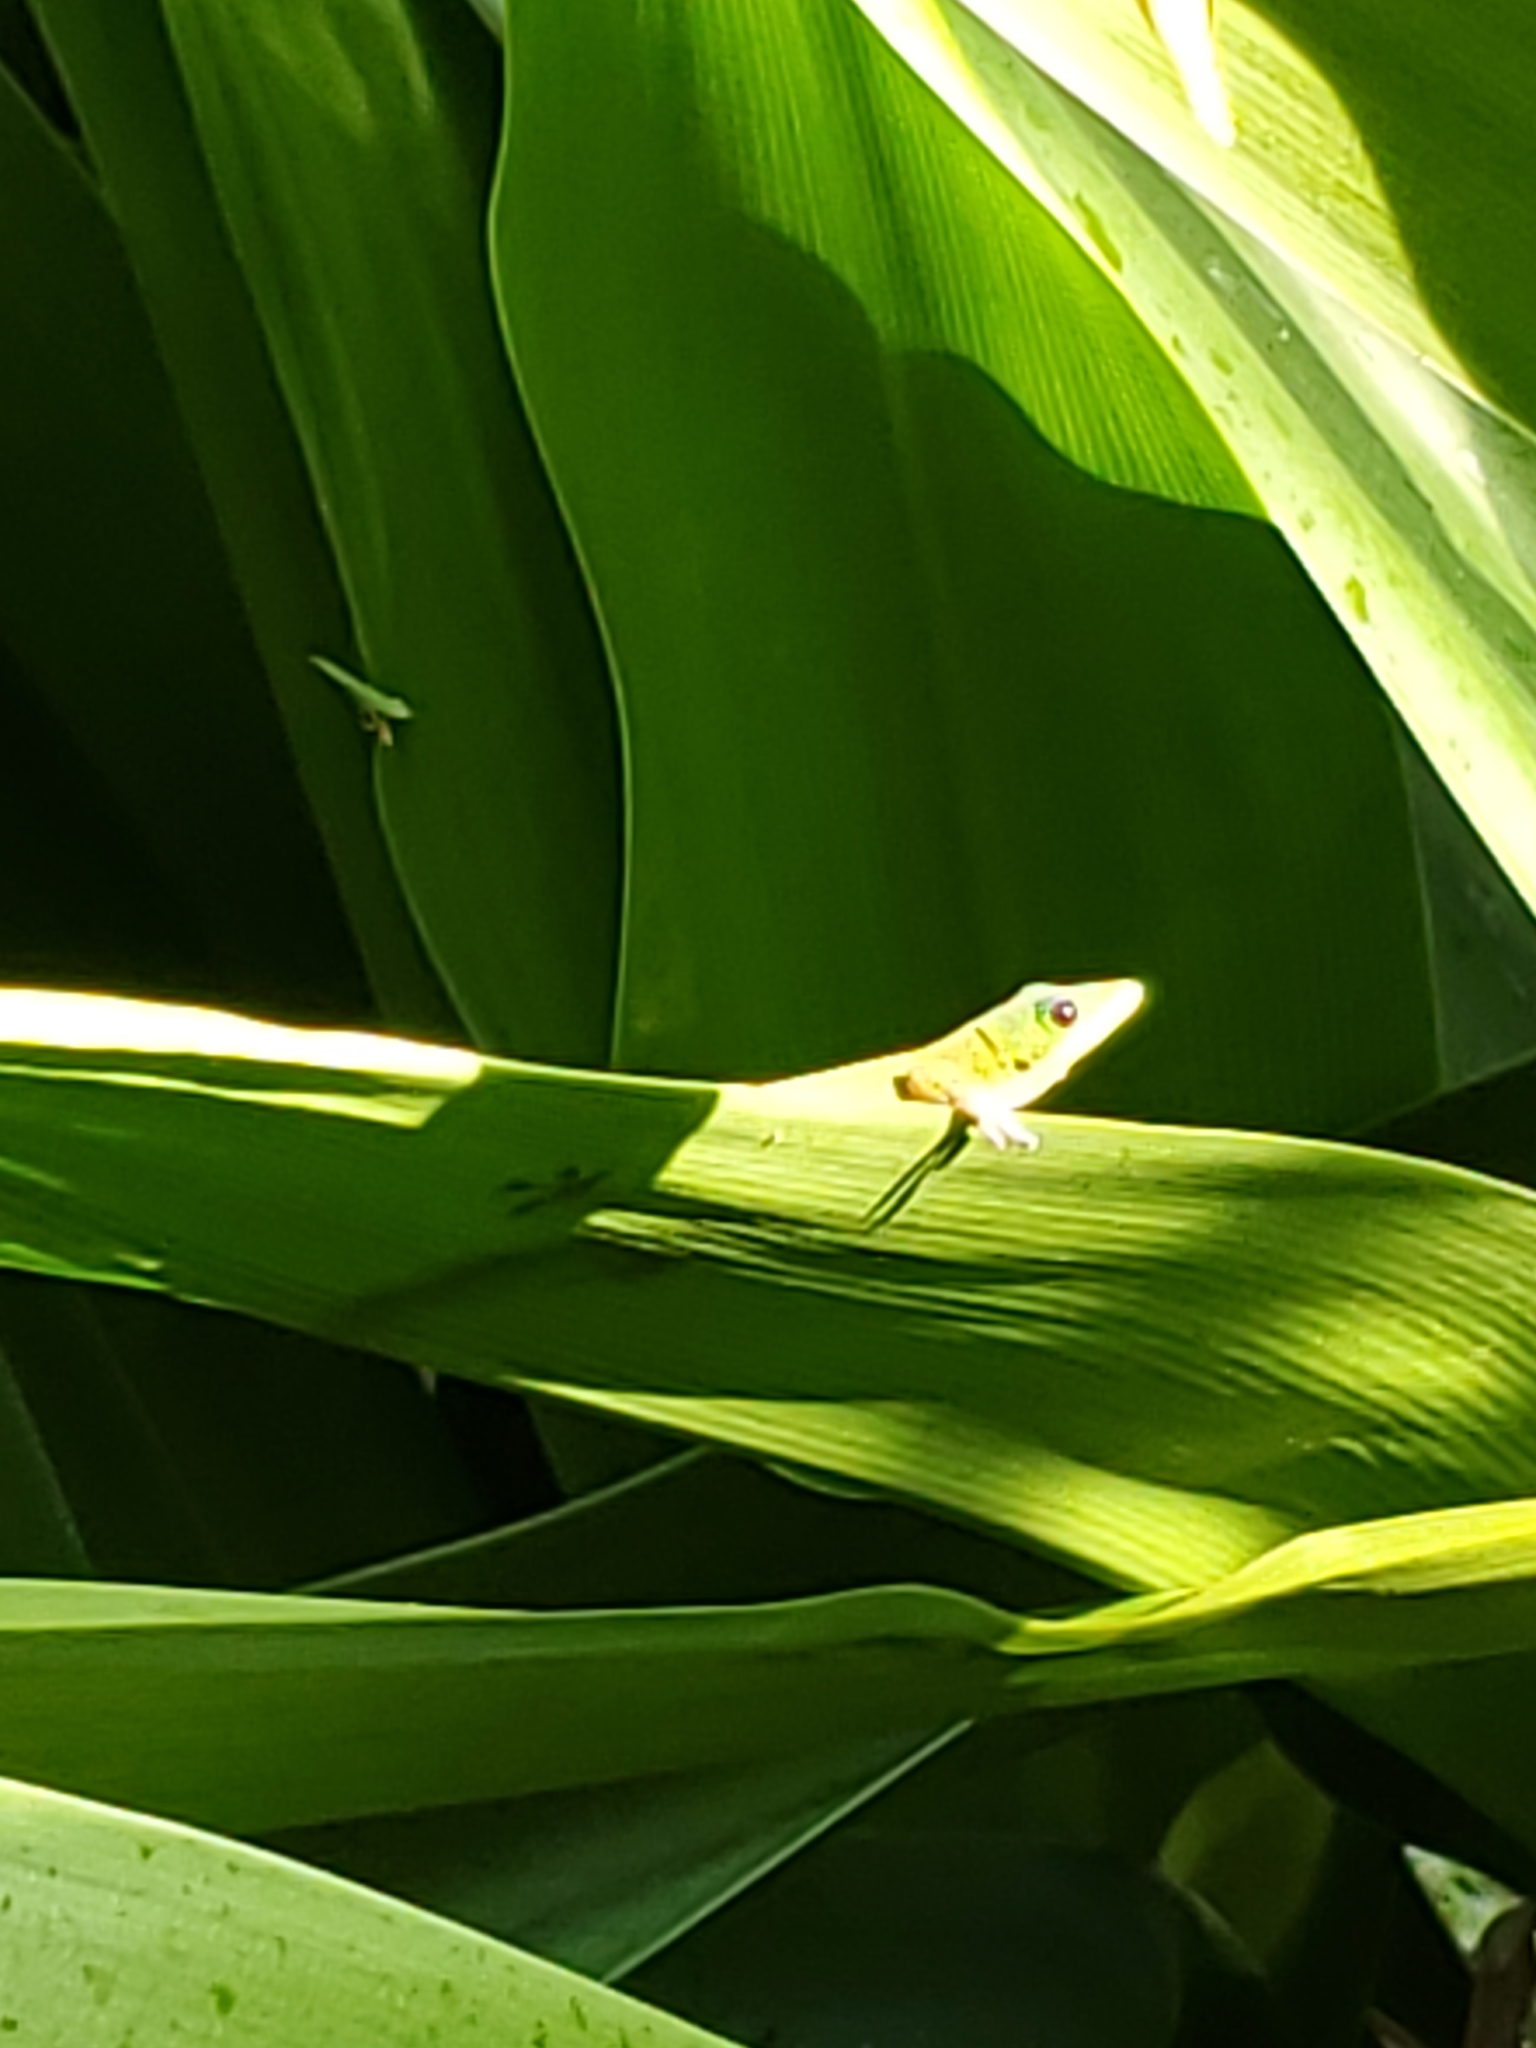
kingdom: Animalia
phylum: Chordata
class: Squamata
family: Gekkonidae
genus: Phelsuma
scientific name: Phelsuma laticauda
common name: Gold dust day gecko
